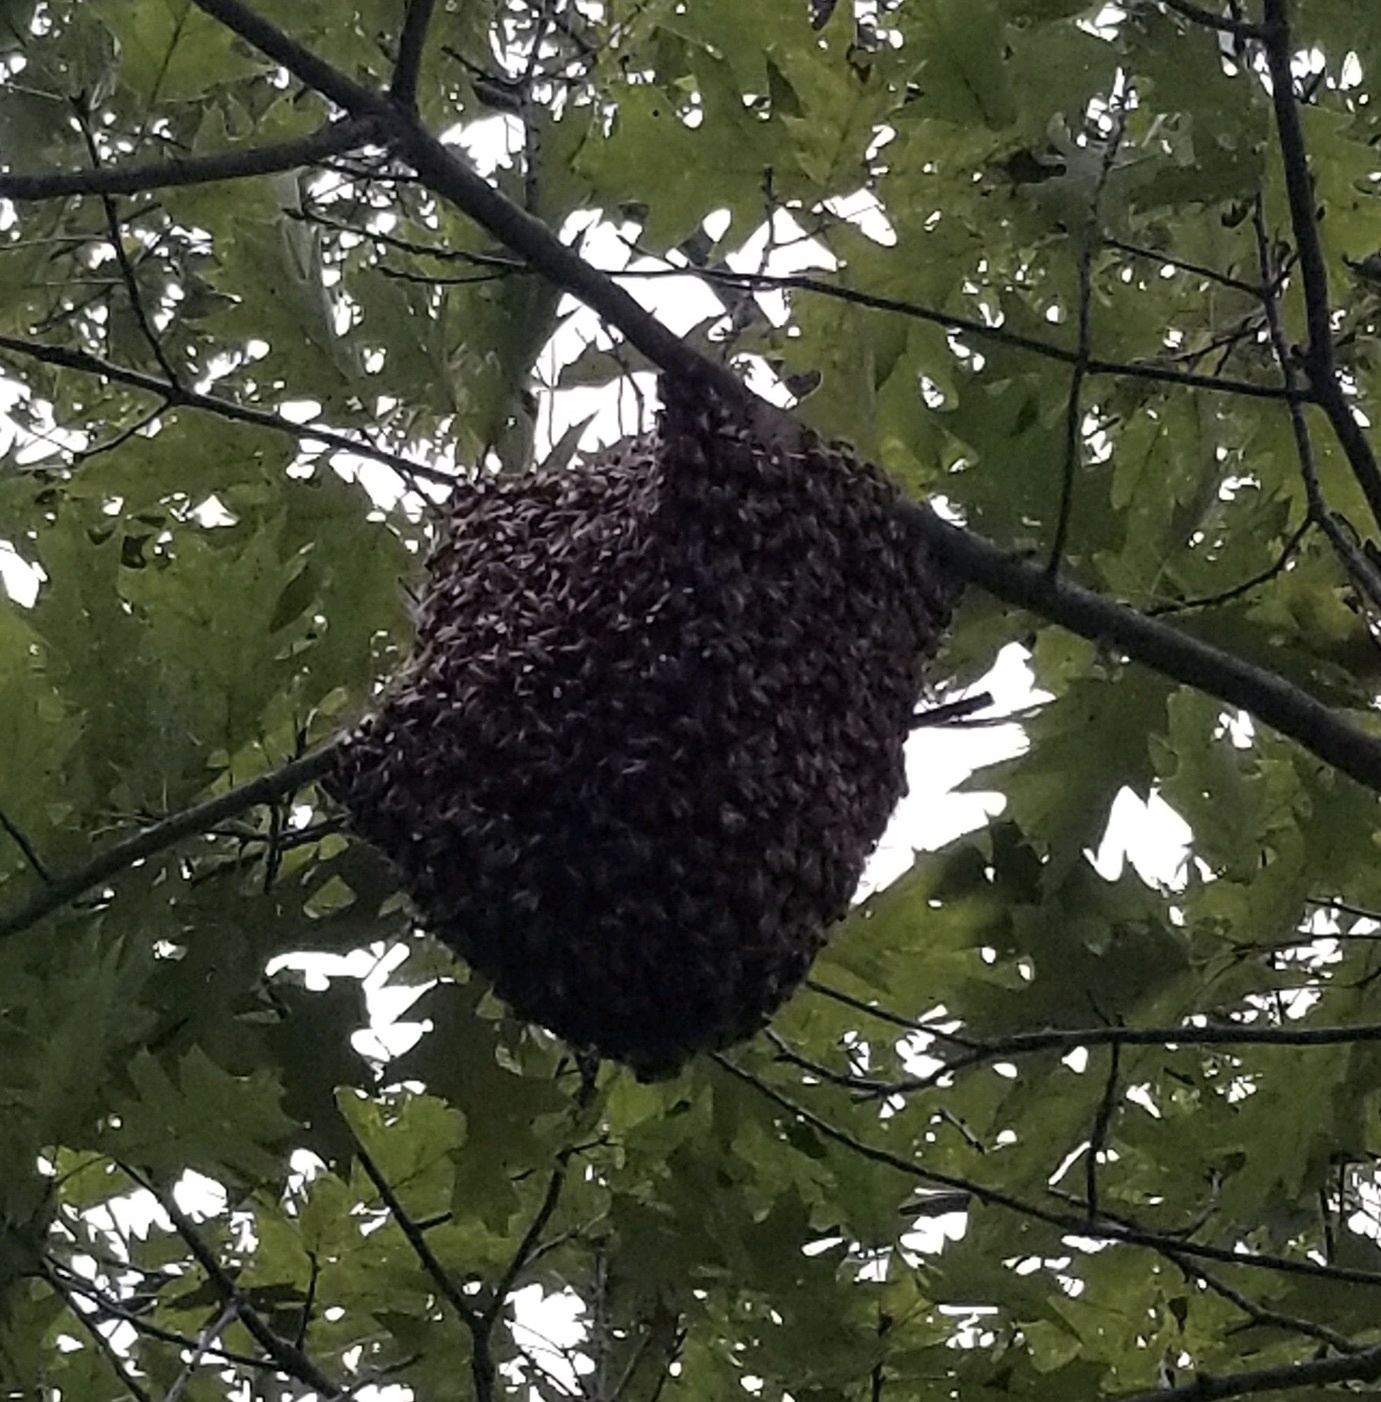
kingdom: Animalia
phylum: Arthropoda
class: Insecta
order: Hymenoptera
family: Apidae
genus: Apis
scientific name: Apis mellifera
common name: Honey bee
